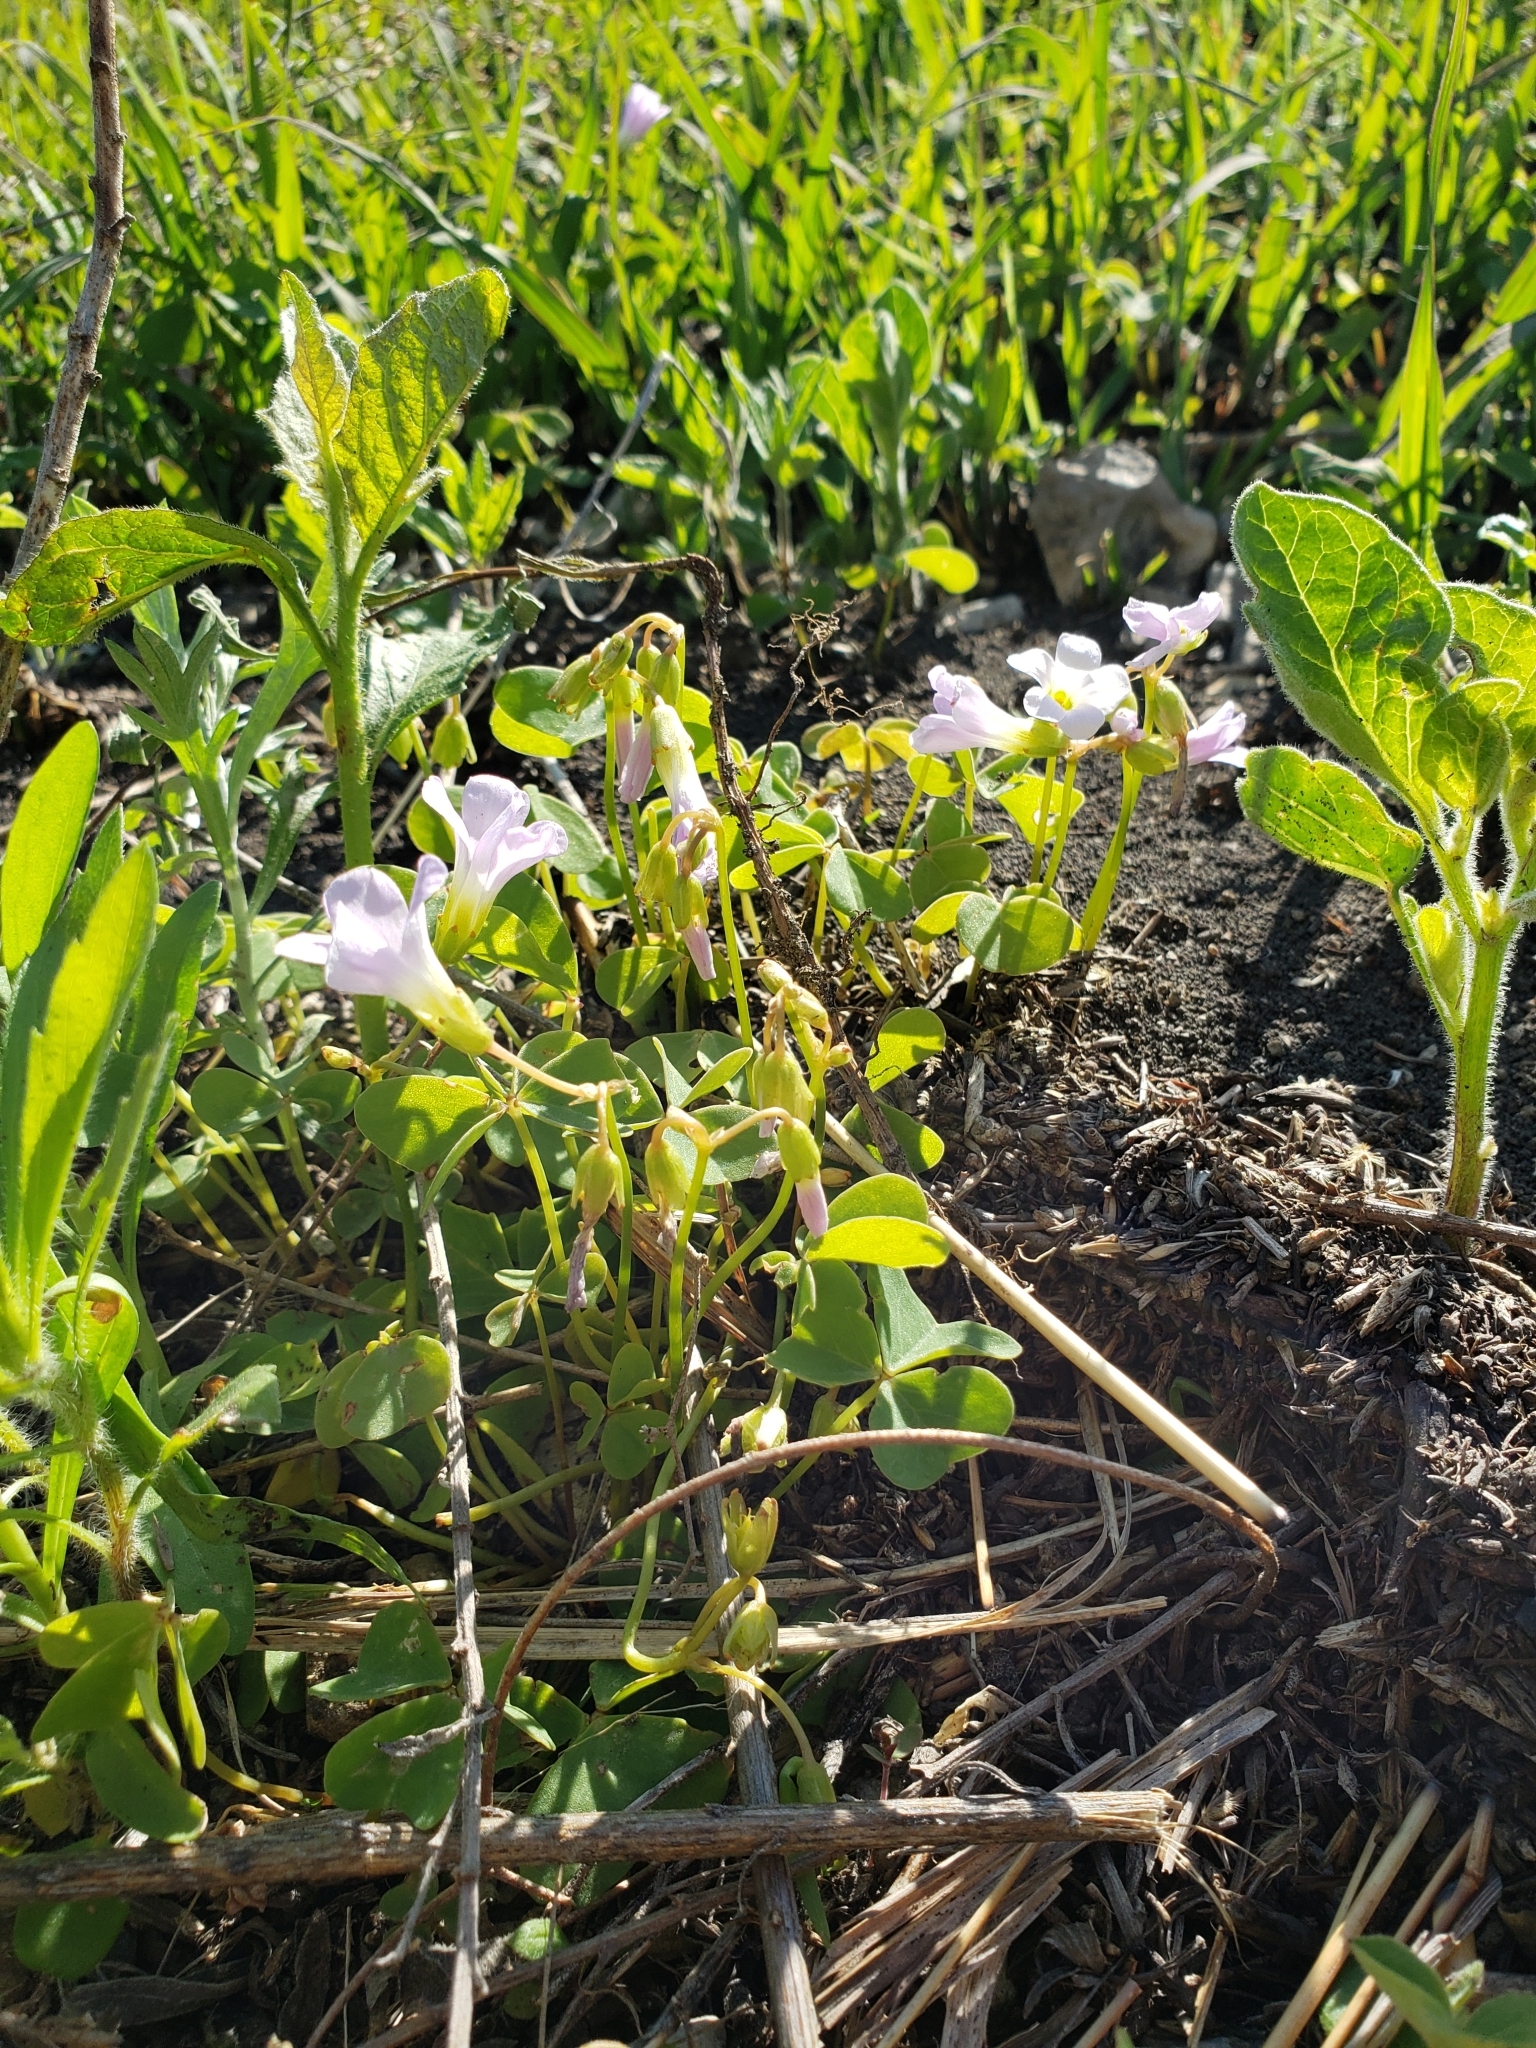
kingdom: Plantae
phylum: Tracheophyta
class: Magnoliopsida
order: Oxalidales
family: Oxalidaceae
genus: Oxalis
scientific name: Oxalis violacea
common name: Violet wood-sorrel
